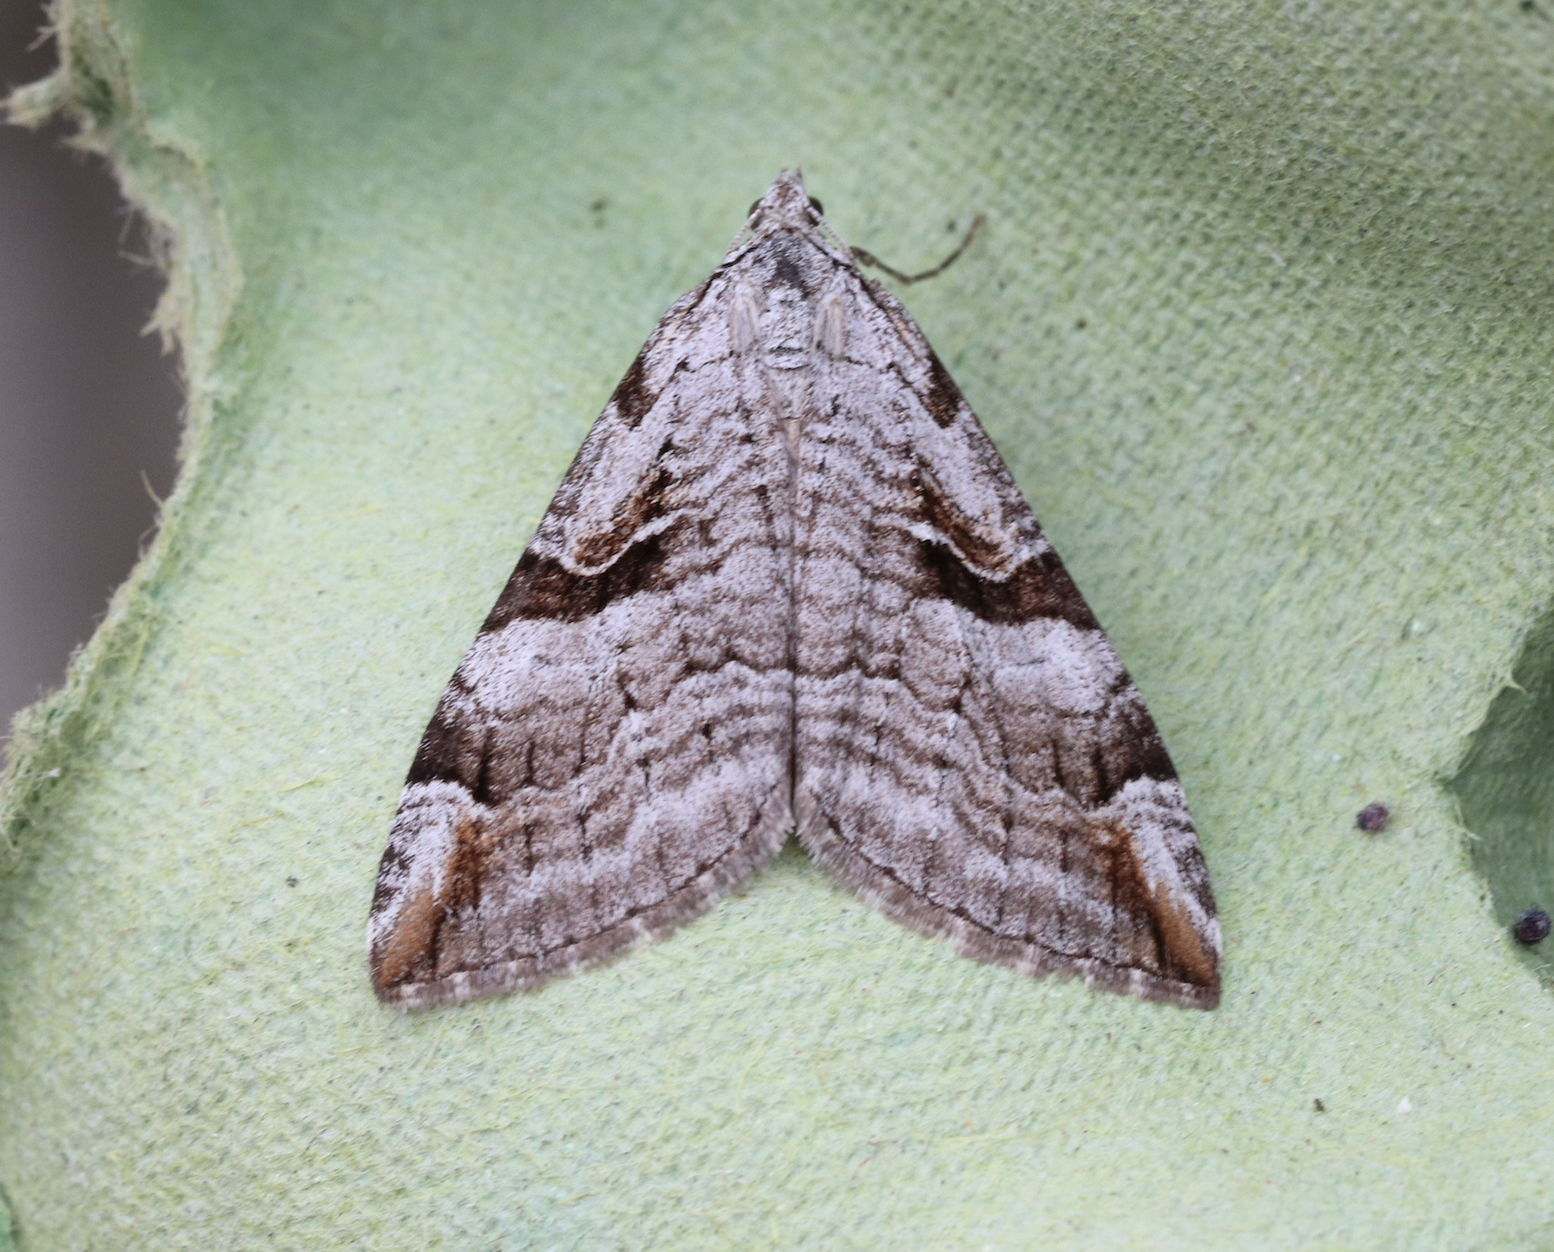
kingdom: Animalia
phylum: Arthropoda
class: Insecta
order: Lepidoptera
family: Geometridae
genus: Aplocera
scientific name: Aplocera praeformata
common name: Purple treble-bar
